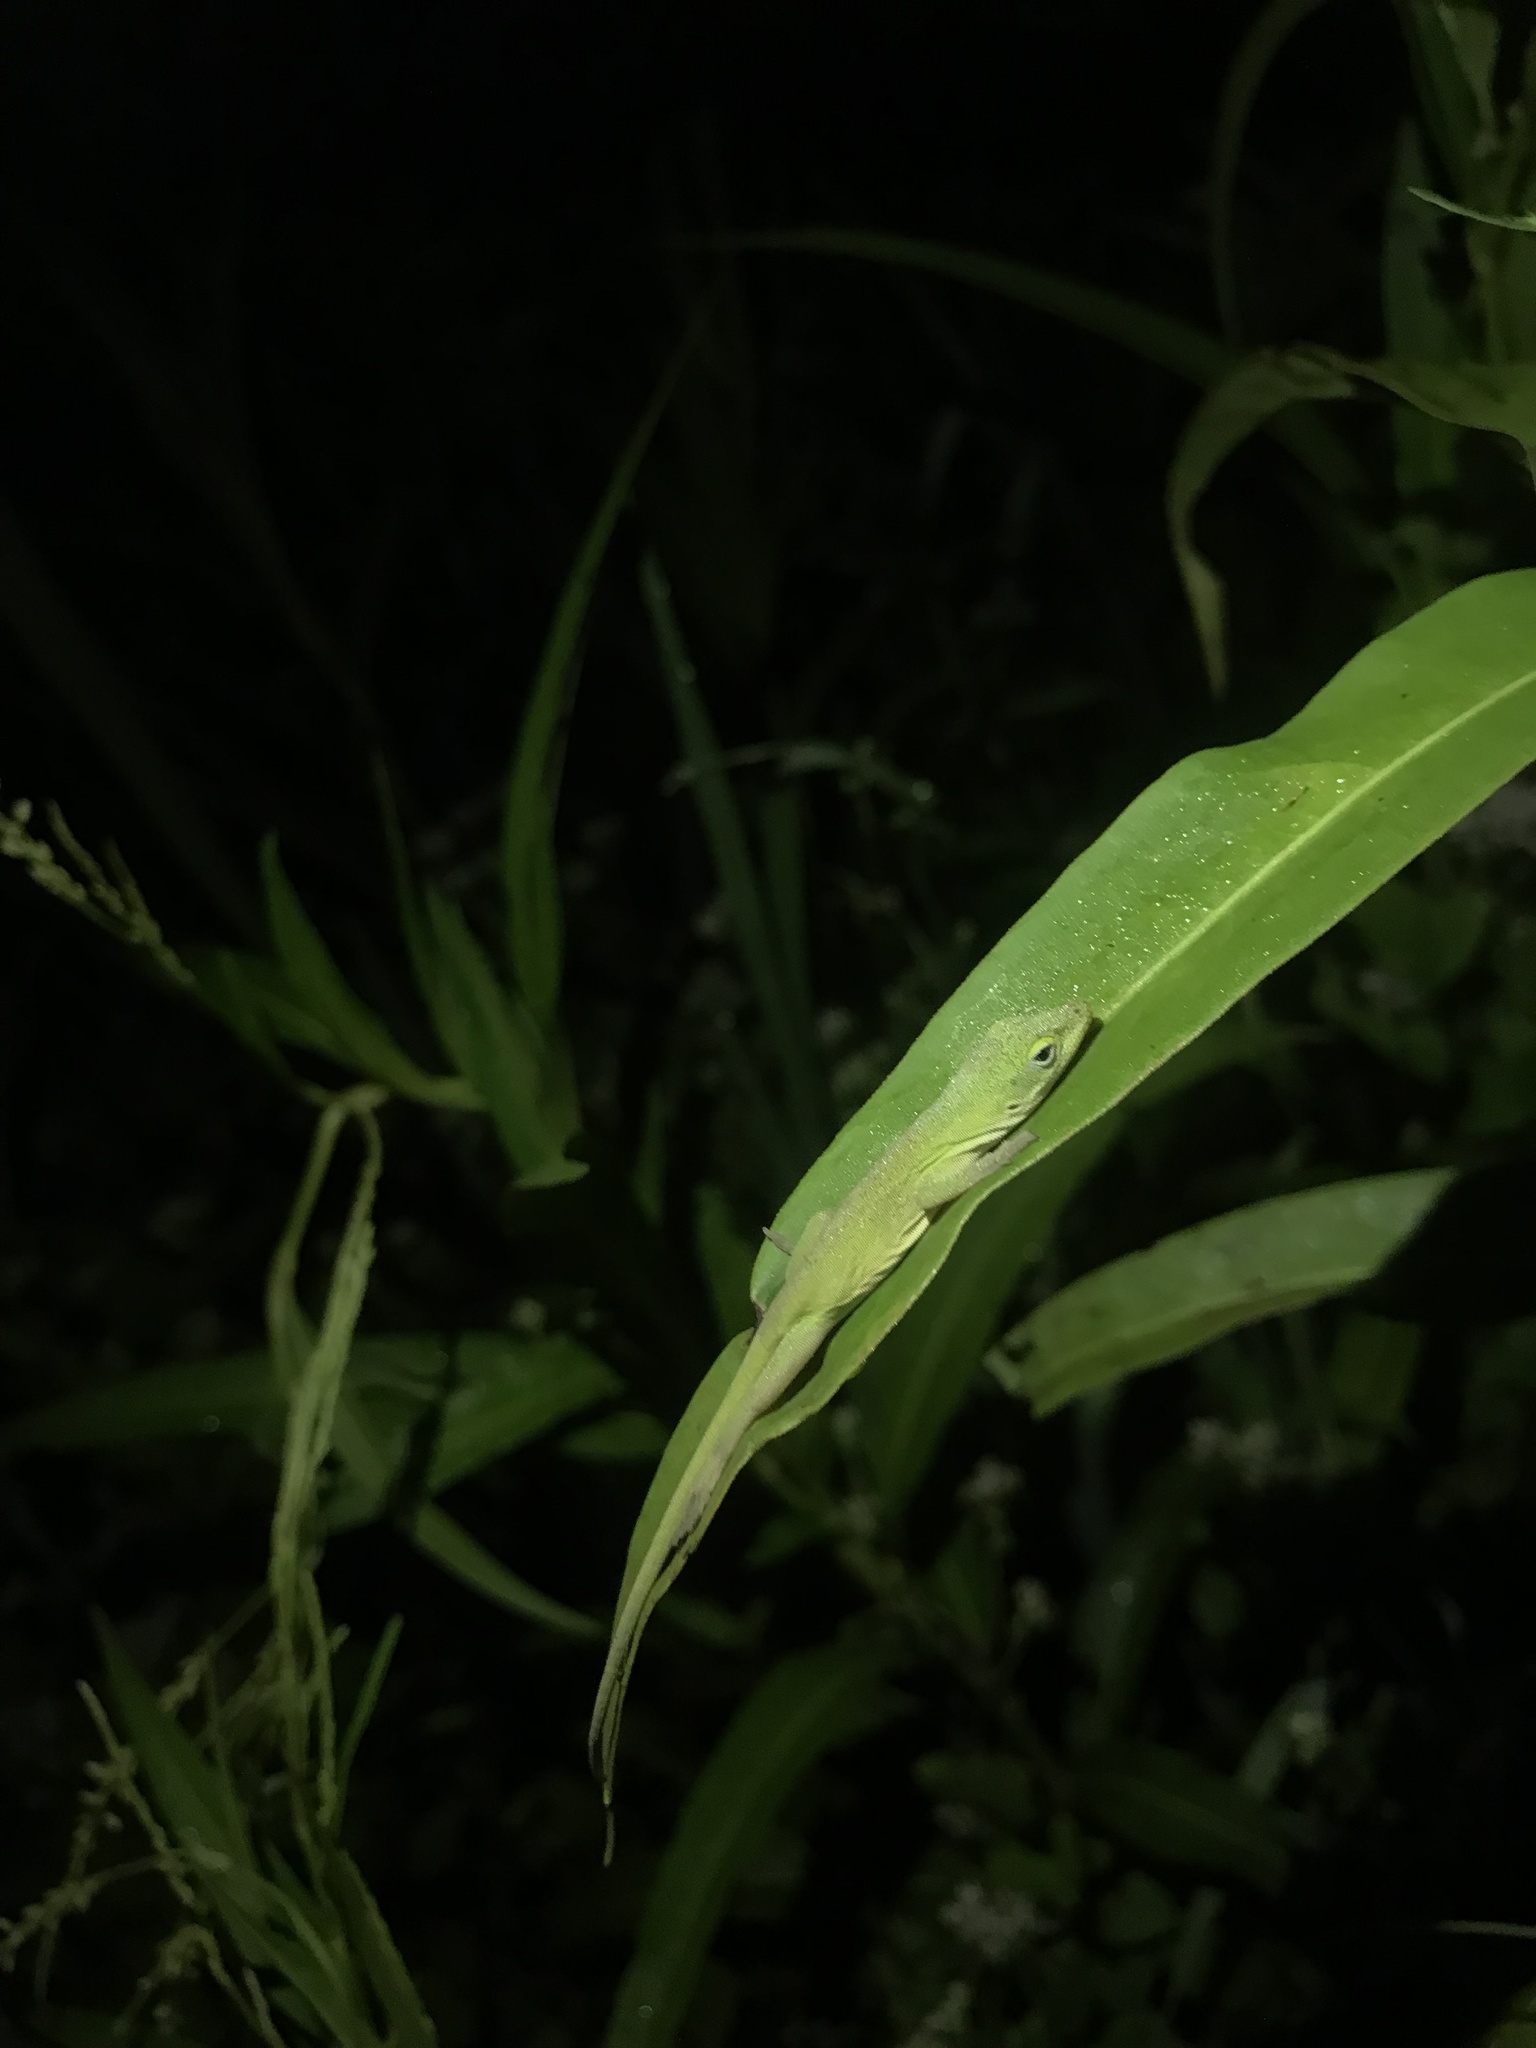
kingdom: Animalia
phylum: Chordata
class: Squamata
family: Dactyloidae
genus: Anolis
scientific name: Anolis carolinensis
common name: Green anole
